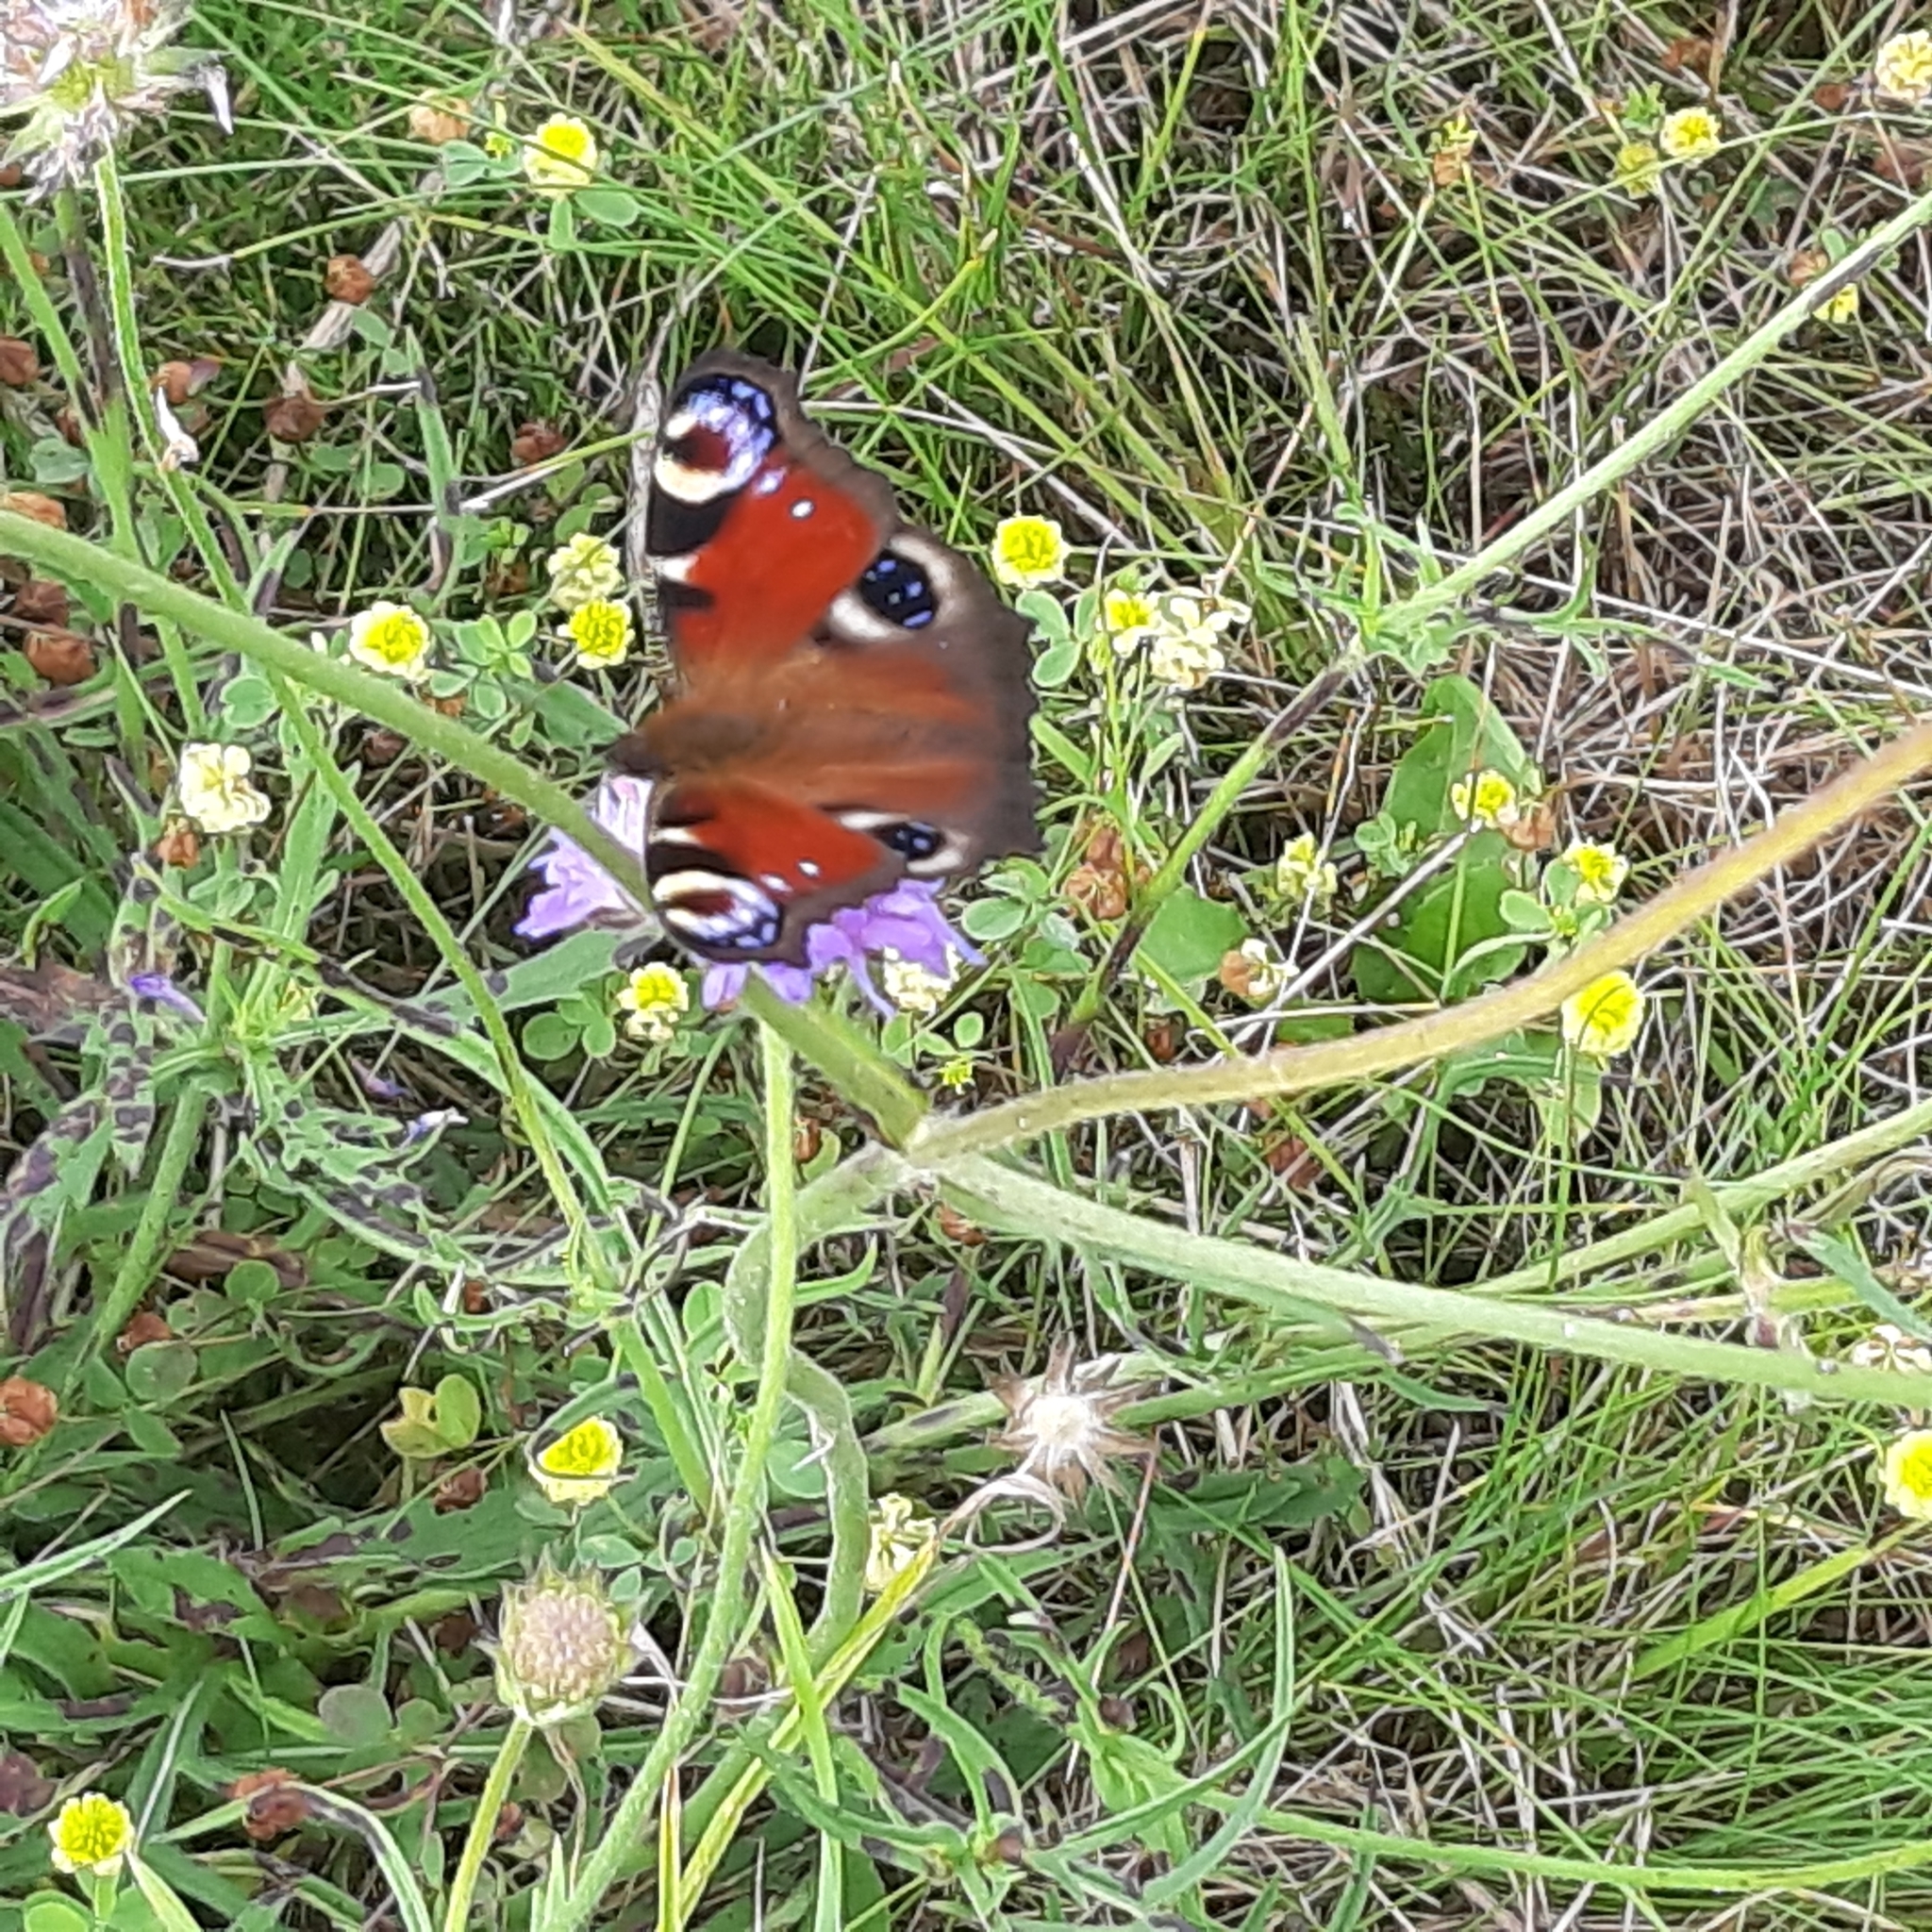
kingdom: Animalia
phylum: Arthropoda
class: Insecta
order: Lepidoptera
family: Nymphalidae
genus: Aglais
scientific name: Aglais io
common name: Peacock
